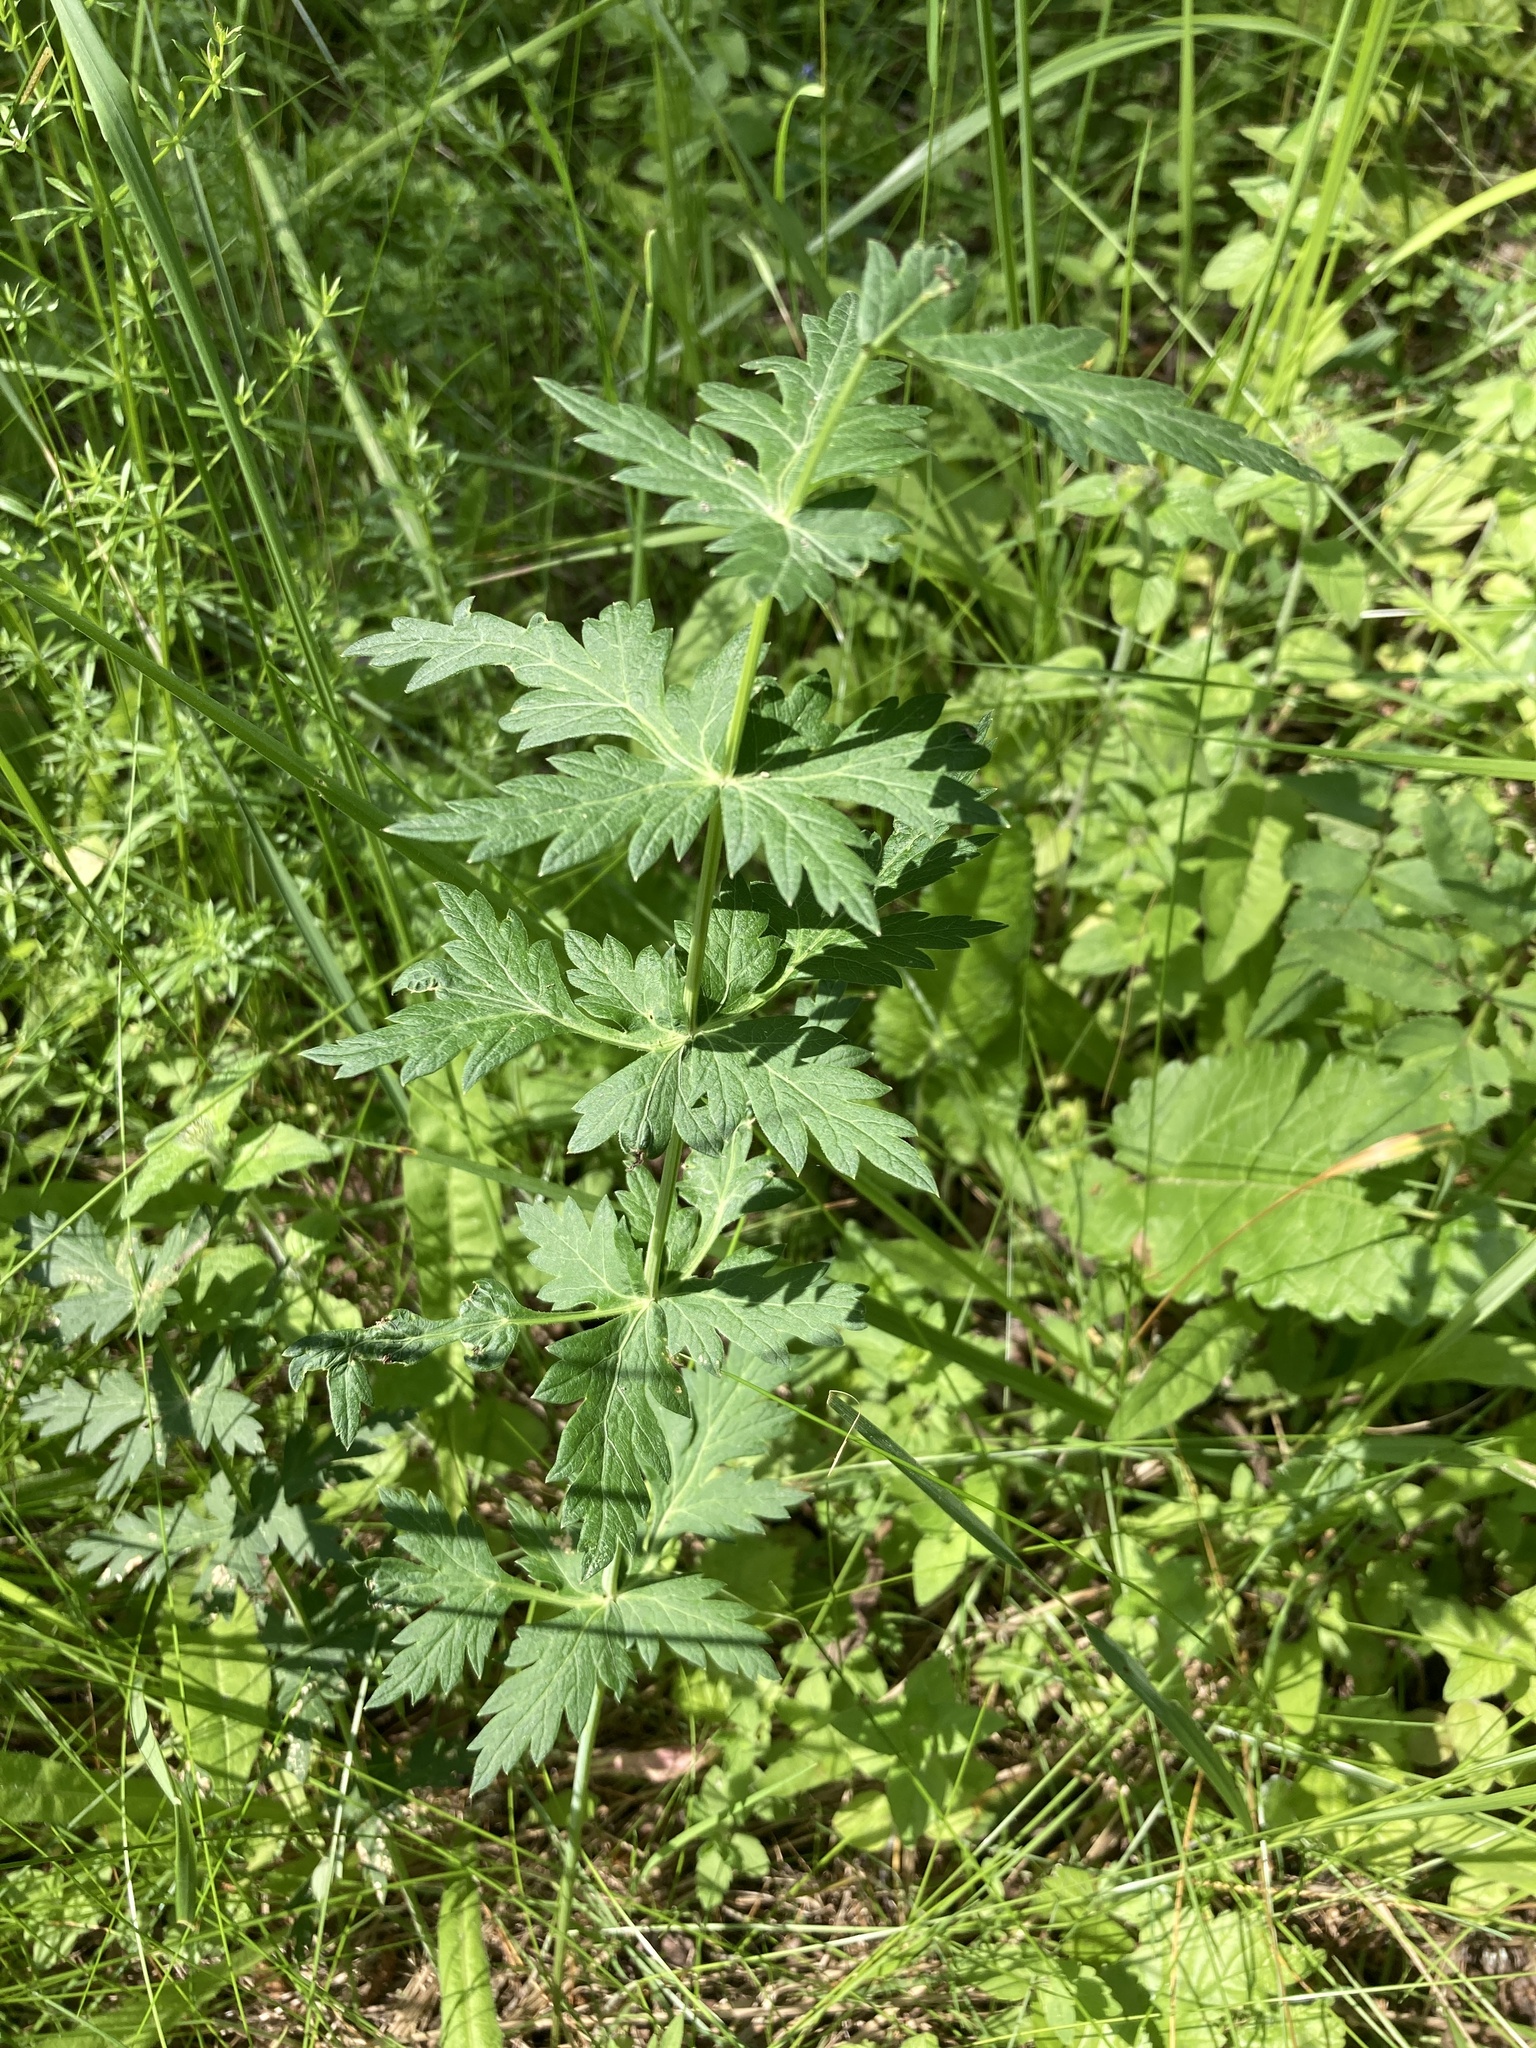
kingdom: Plantae
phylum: Tracheophyta
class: Magnoliopsida
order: Apiales
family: Apiaceae
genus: Seseli
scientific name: Seseli libanotis
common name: Mooncarrot
